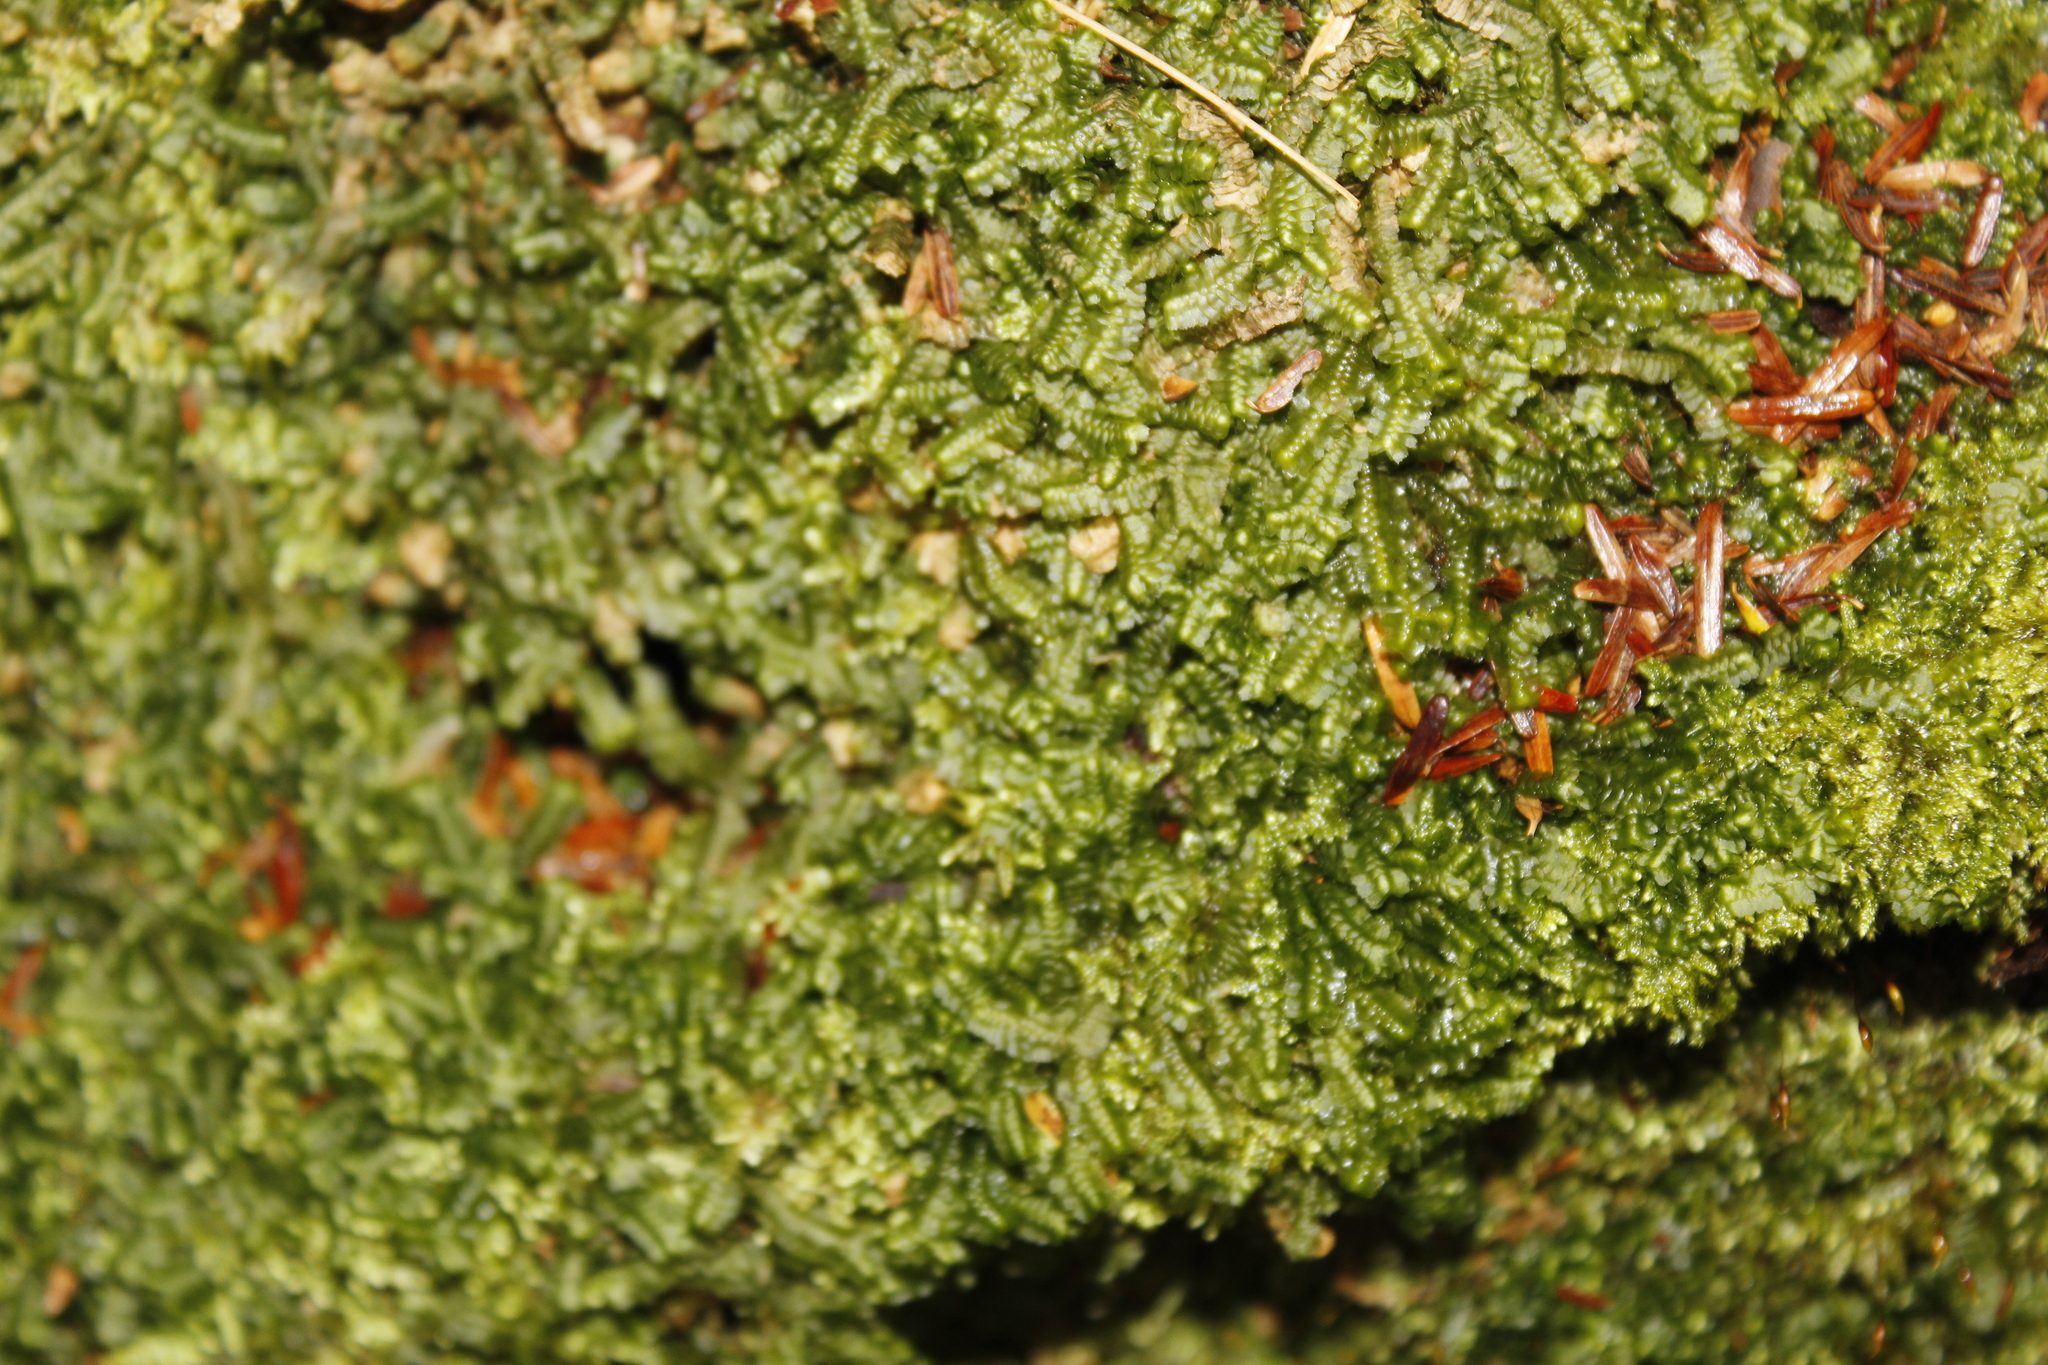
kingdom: Plantae
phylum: Marchantiophyta
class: Jungermanniopsida
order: Jungermanniales
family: Lepidoziaceae
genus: Bazzania
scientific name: Bazzania trilobata
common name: Three-lobed whipwort
